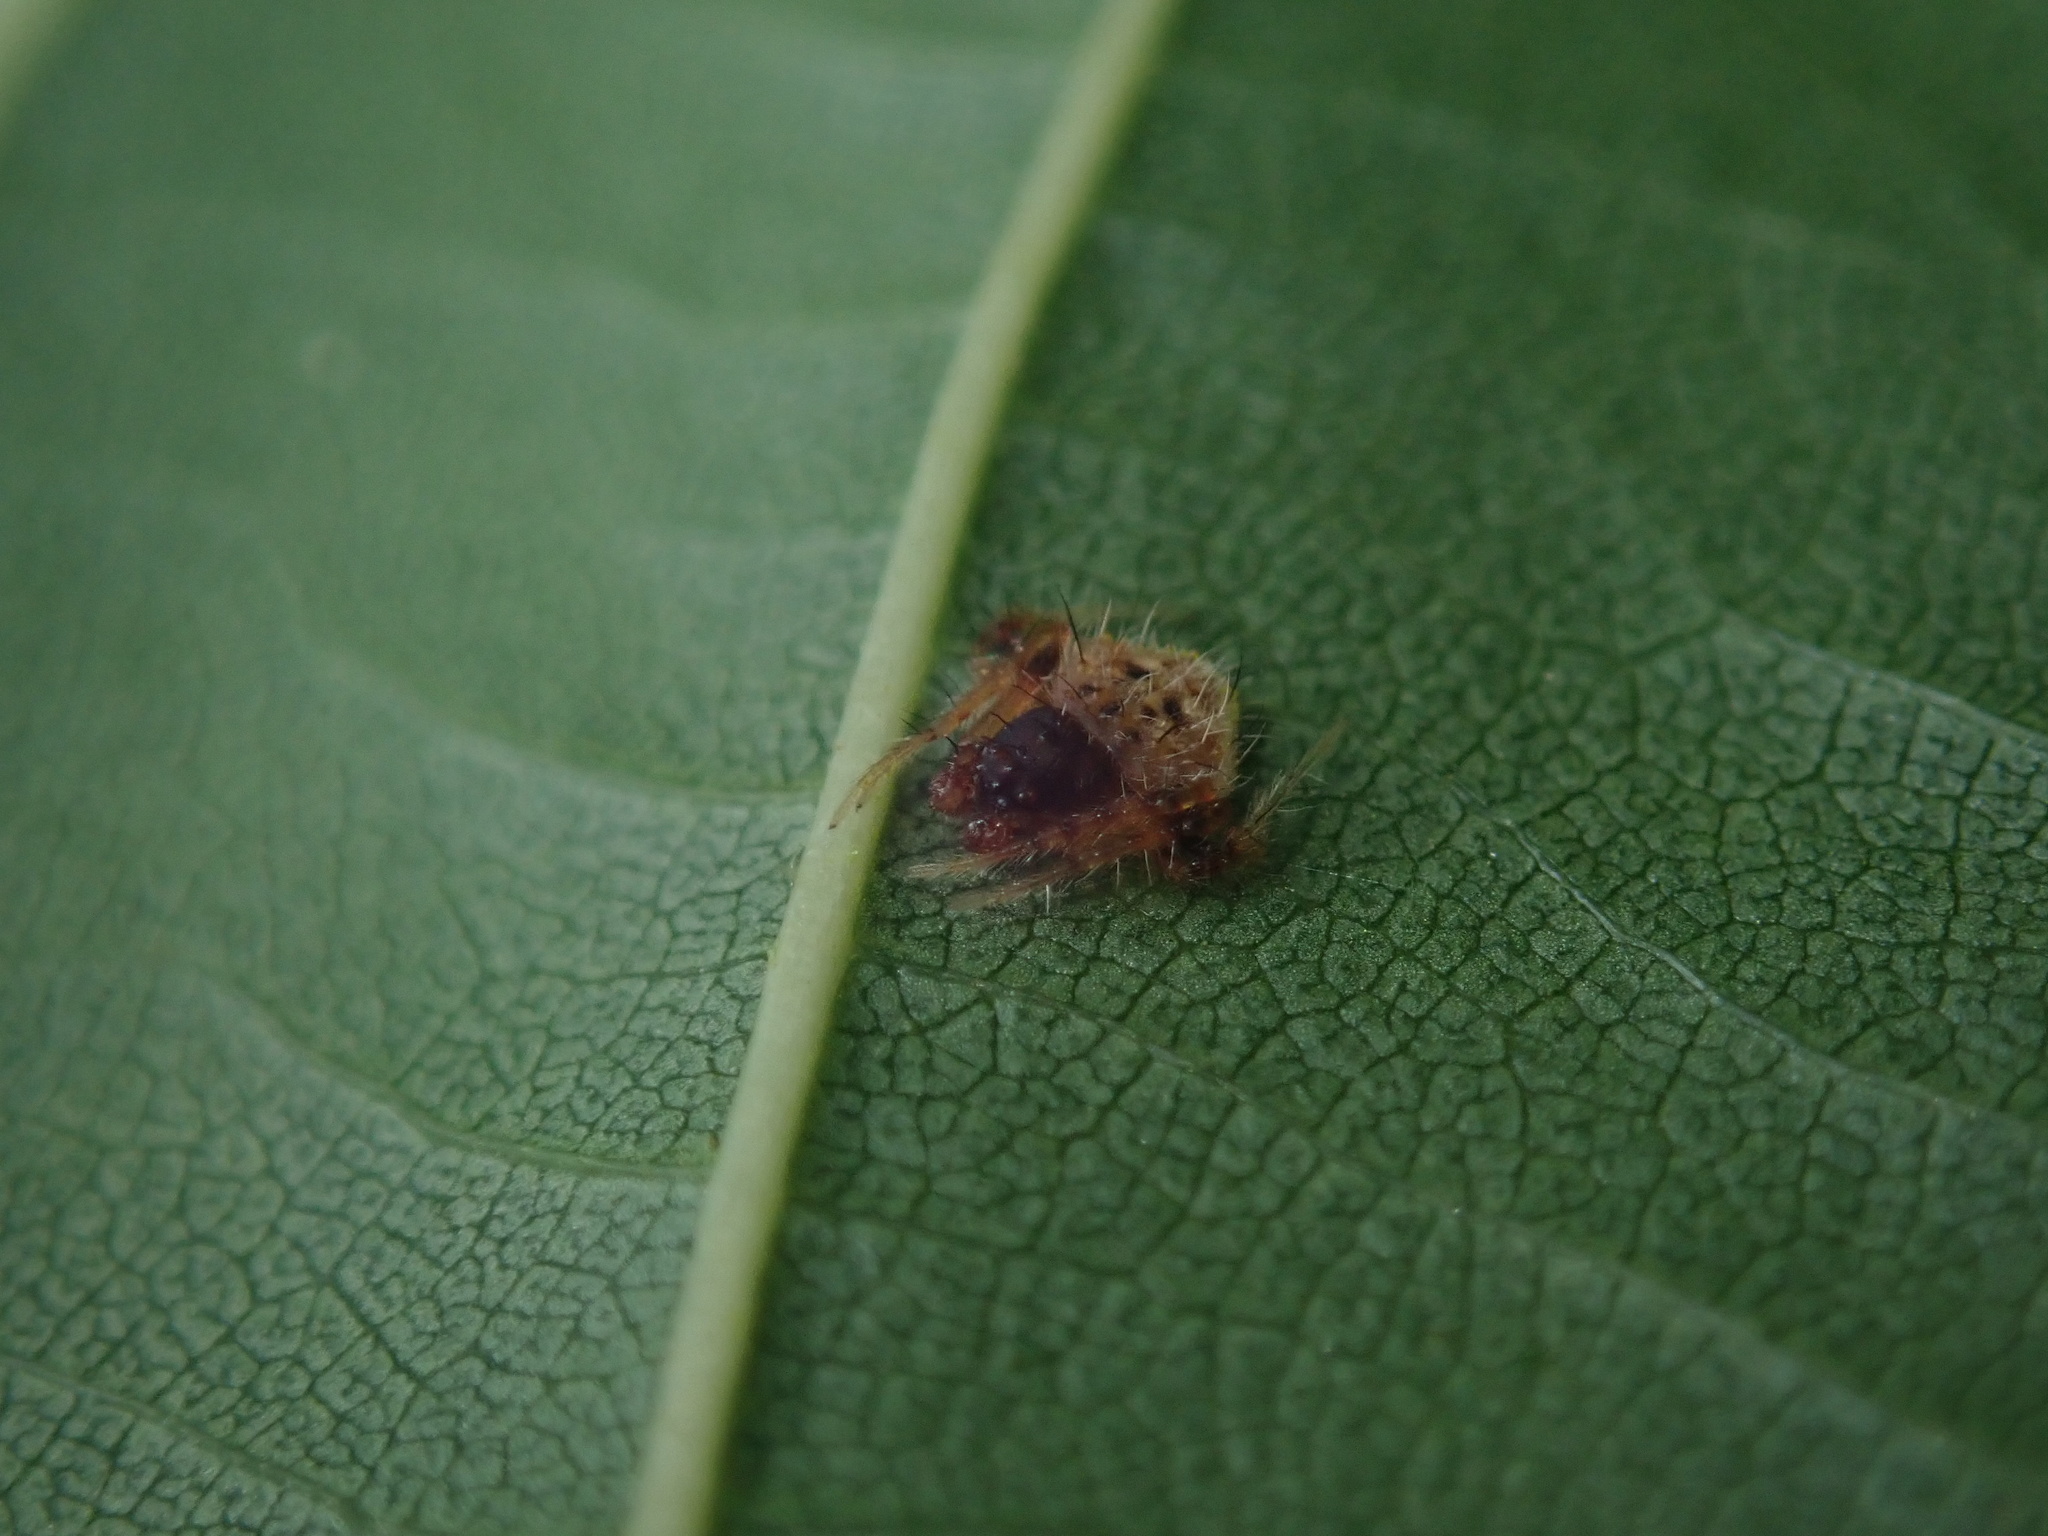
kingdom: Animalia
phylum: Arthropoda
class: Arachnida
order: Araneae
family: Araneidae
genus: Poecilopachys
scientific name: Poecilopachys australasia
